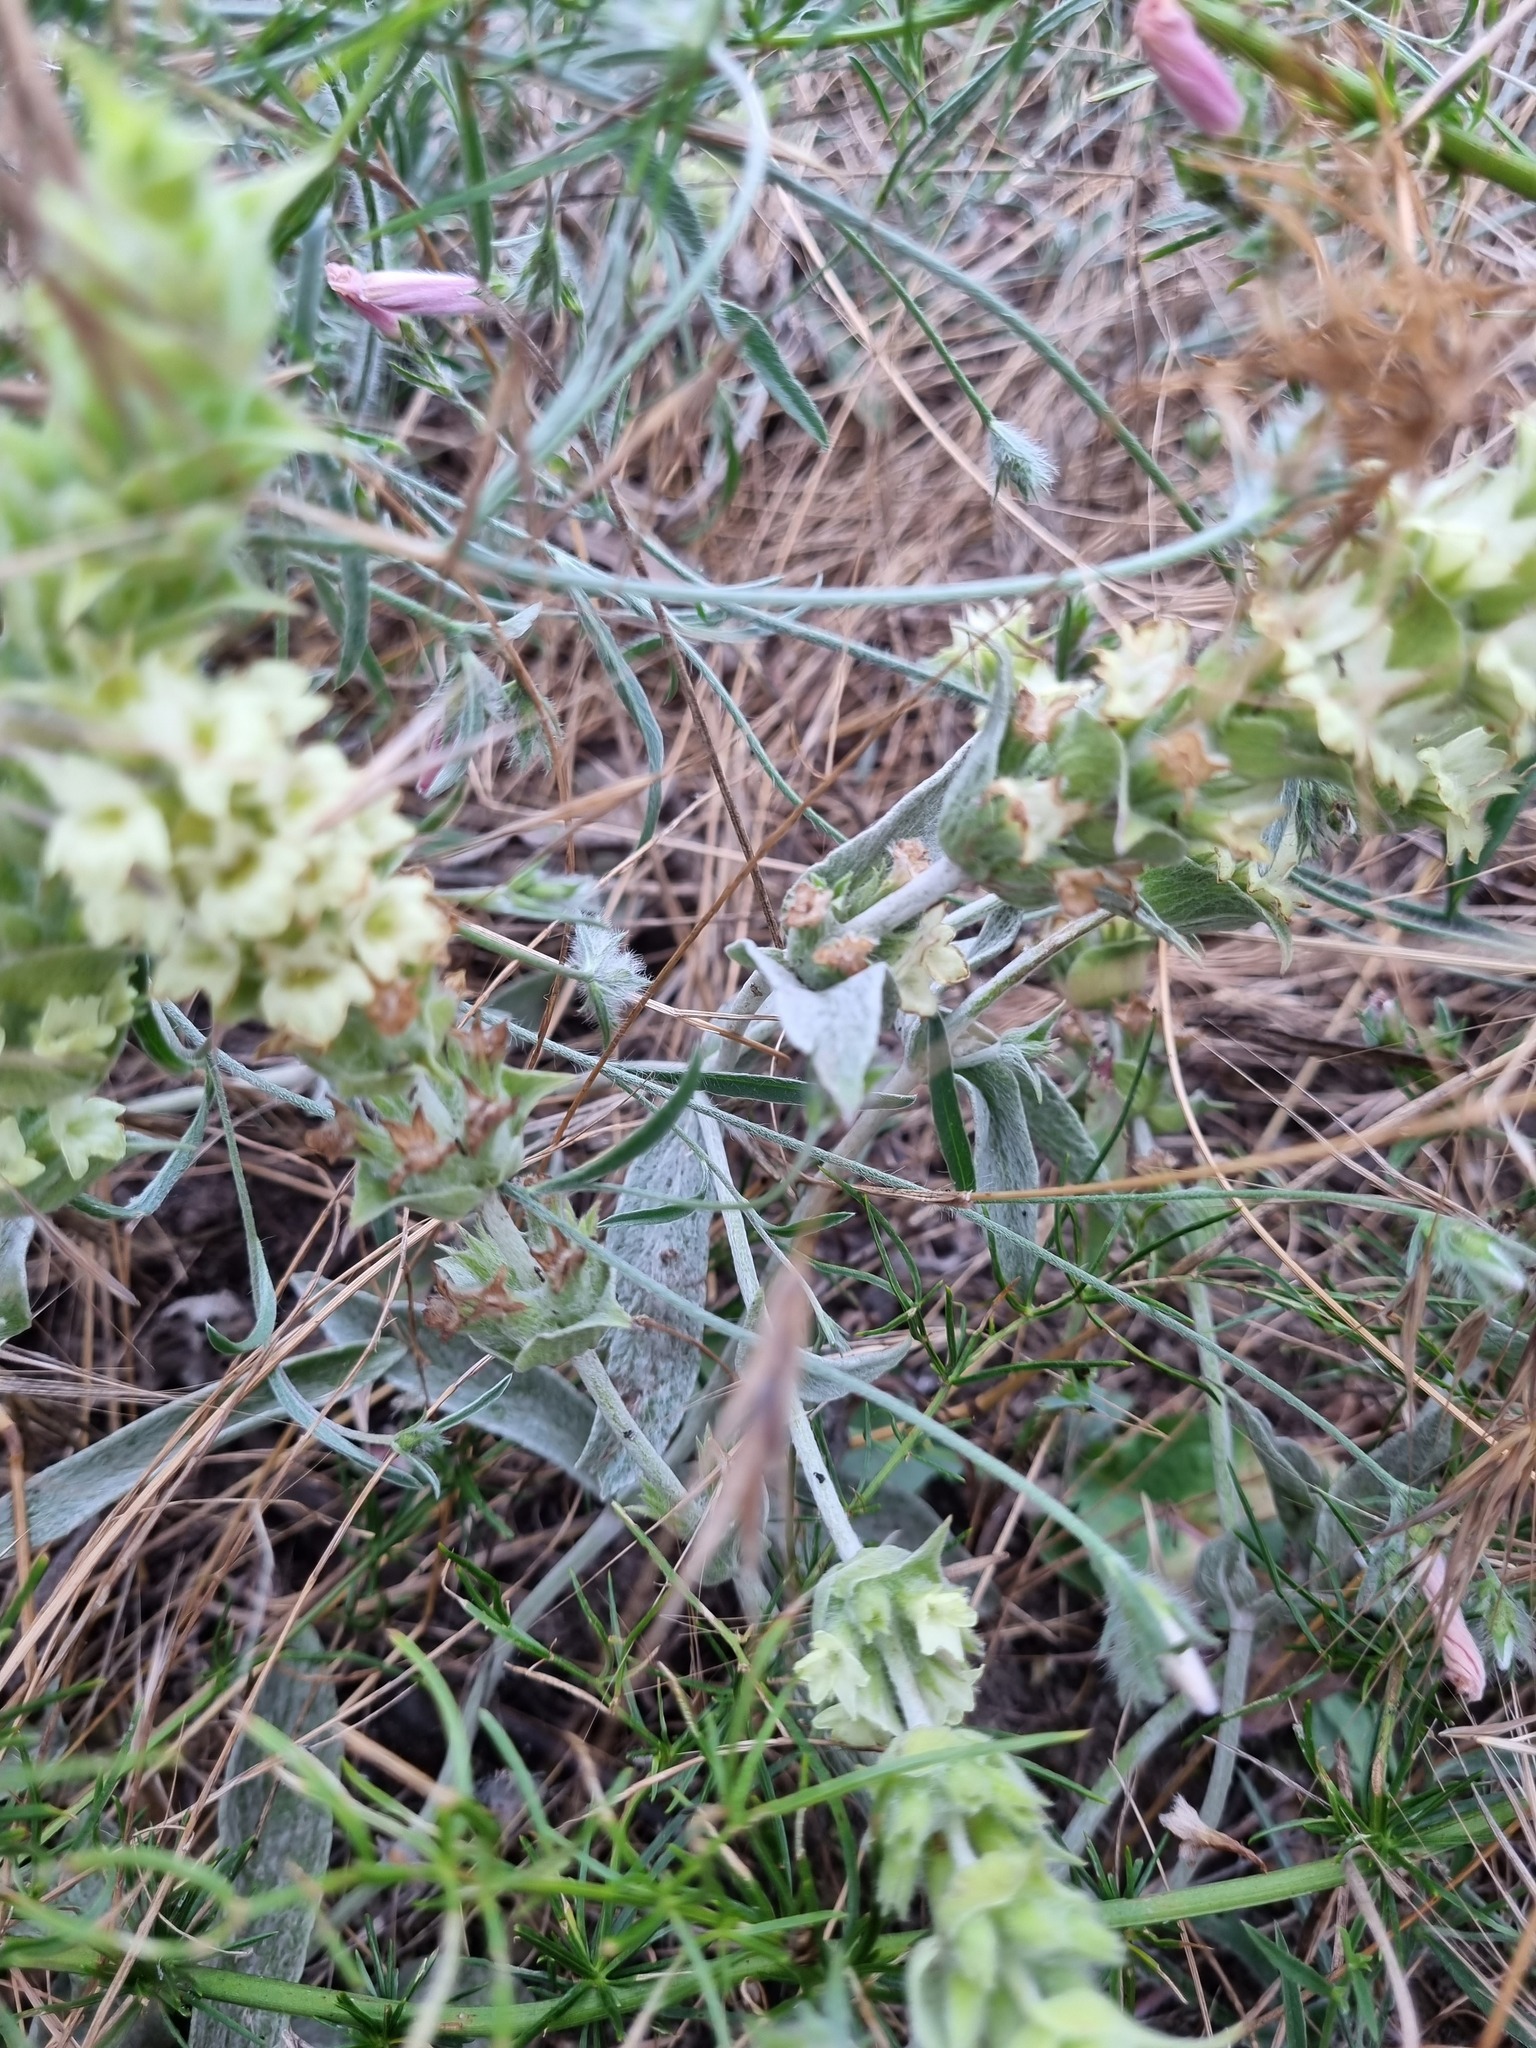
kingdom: Plantae
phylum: Tracheophyta
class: Magnoliopsida
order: Lamiales
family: Lamiaceae
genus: Sideritis
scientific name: Sideritis euxina
